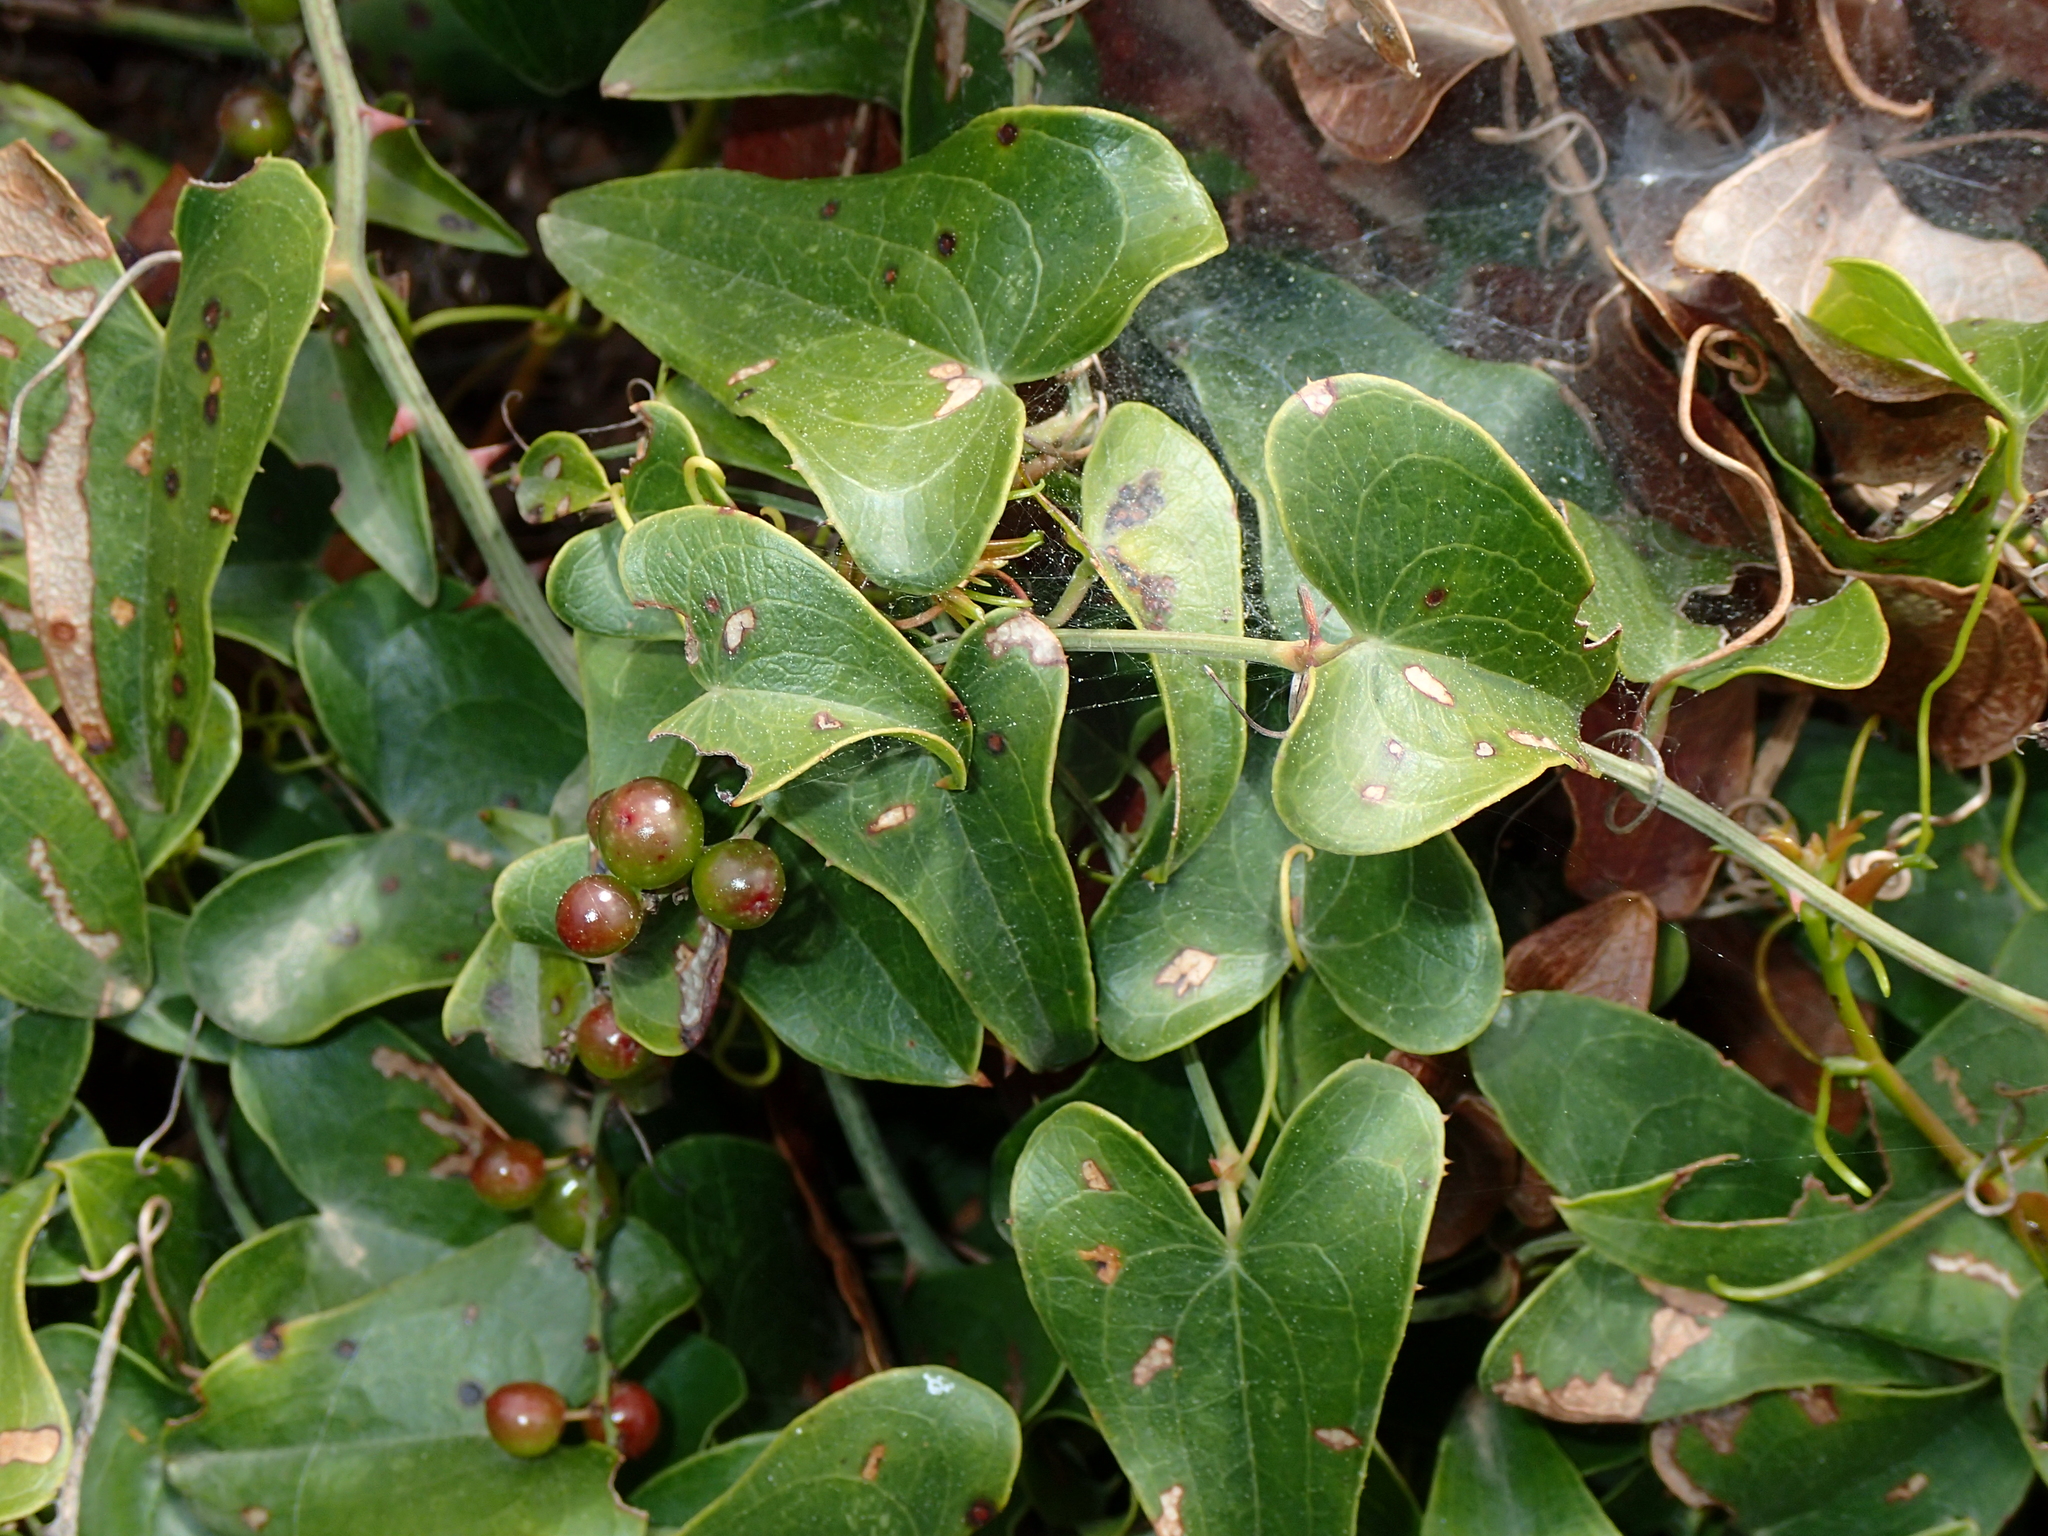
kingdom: Plantae
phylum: Tracheophyta
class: Liliopsida
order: Liliales
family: Smilacaceae
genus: Smilax
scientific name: Smilax aspera
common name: Common smilax
